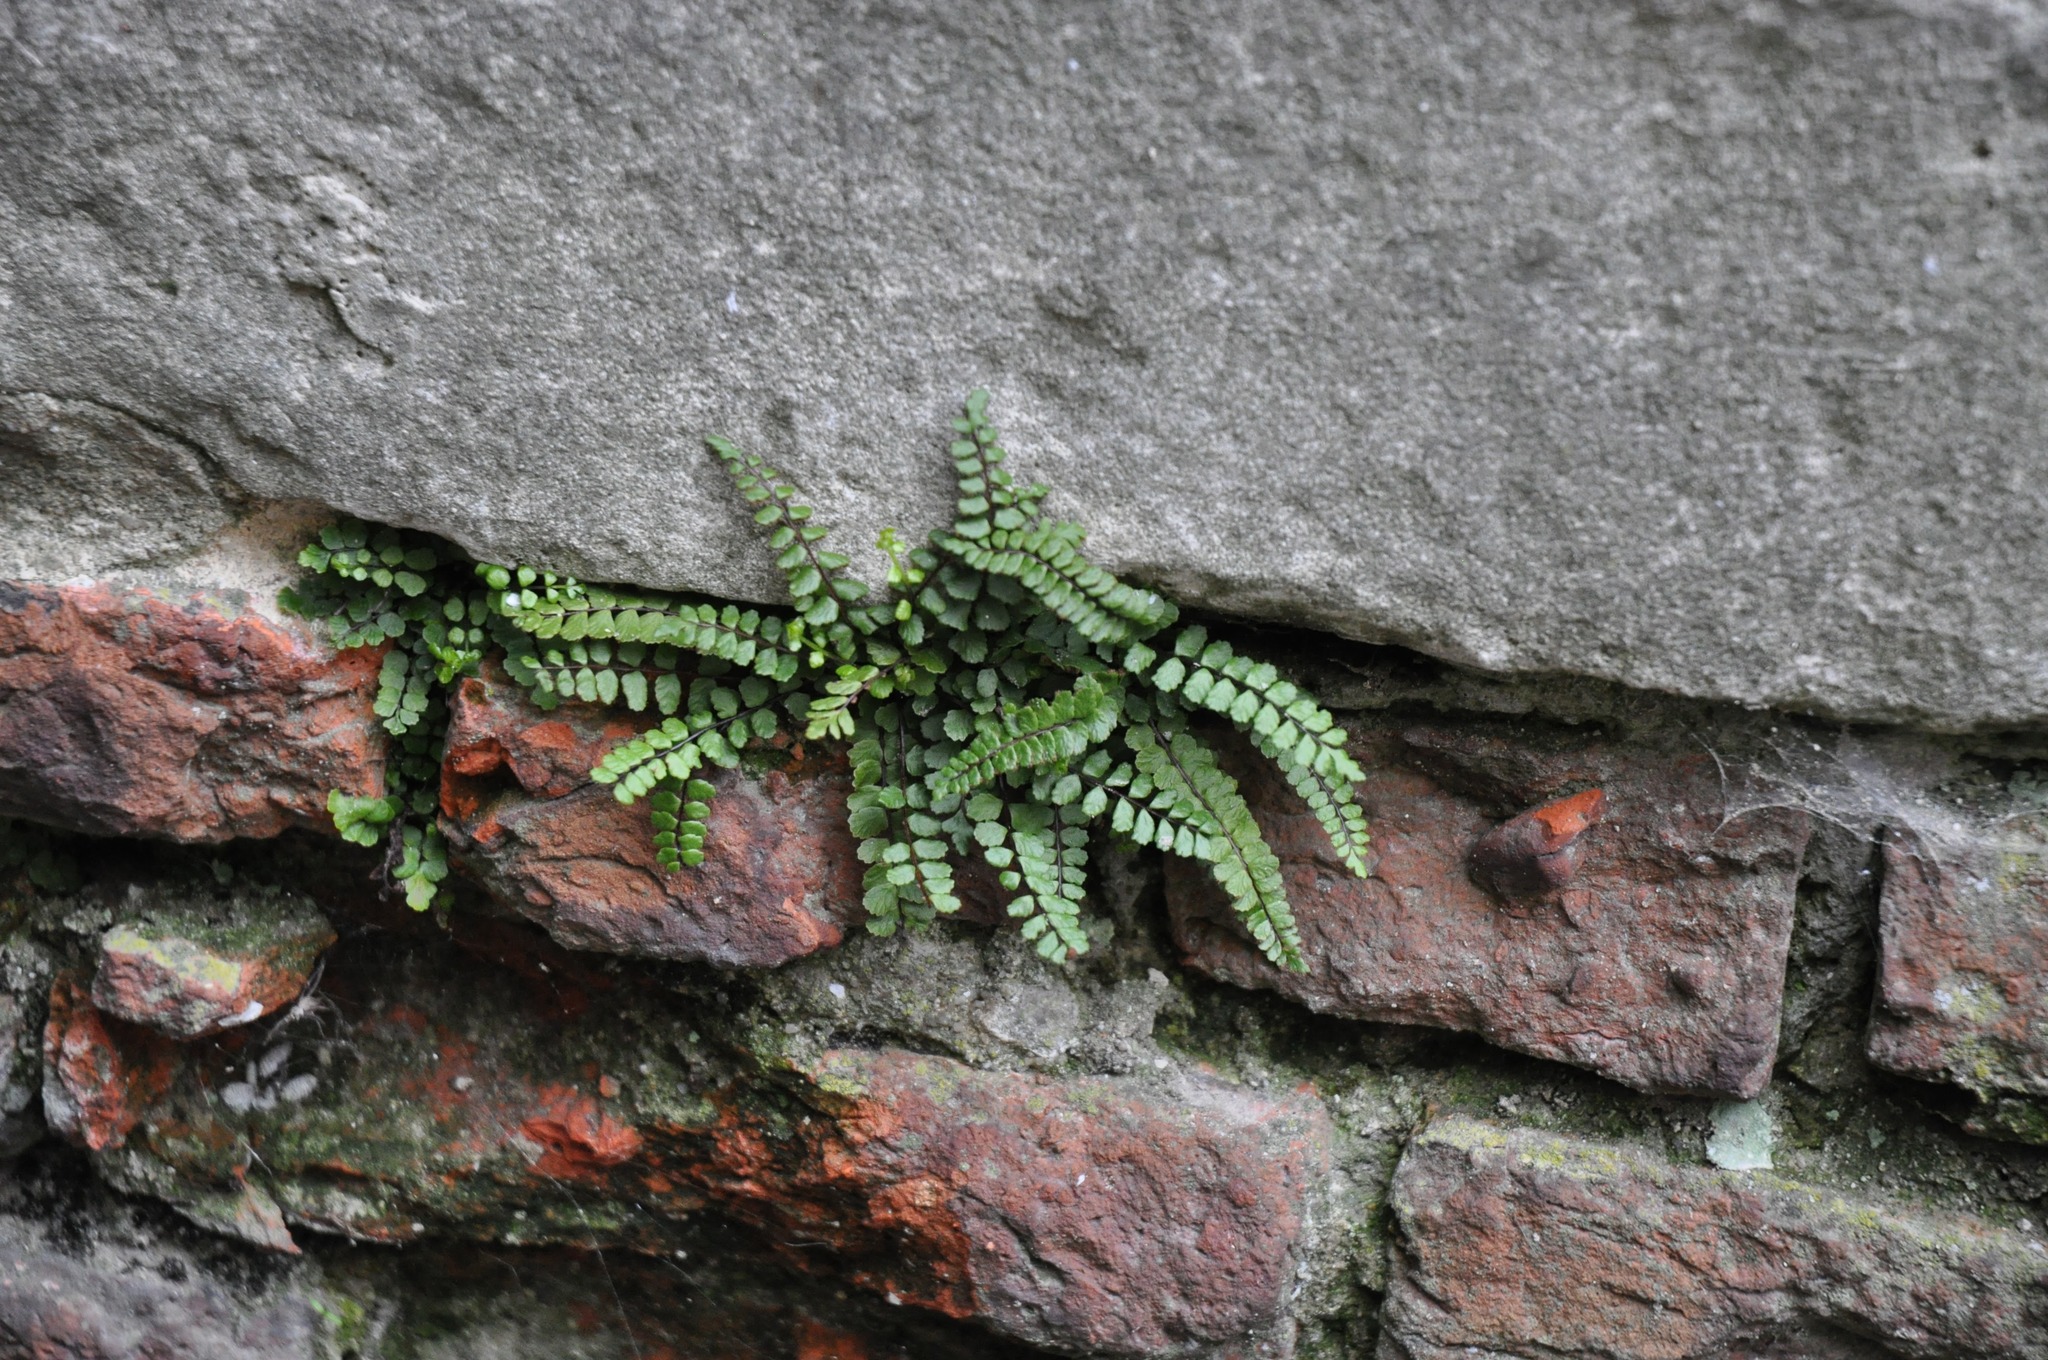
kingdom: Plantae
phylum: Tracheophyta
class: Polypodiopsida
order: Polypodiales
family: Aspleniaceae
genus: Asplenium
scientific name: Asplenium trichomanes
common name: Maidenhair spleenwort
